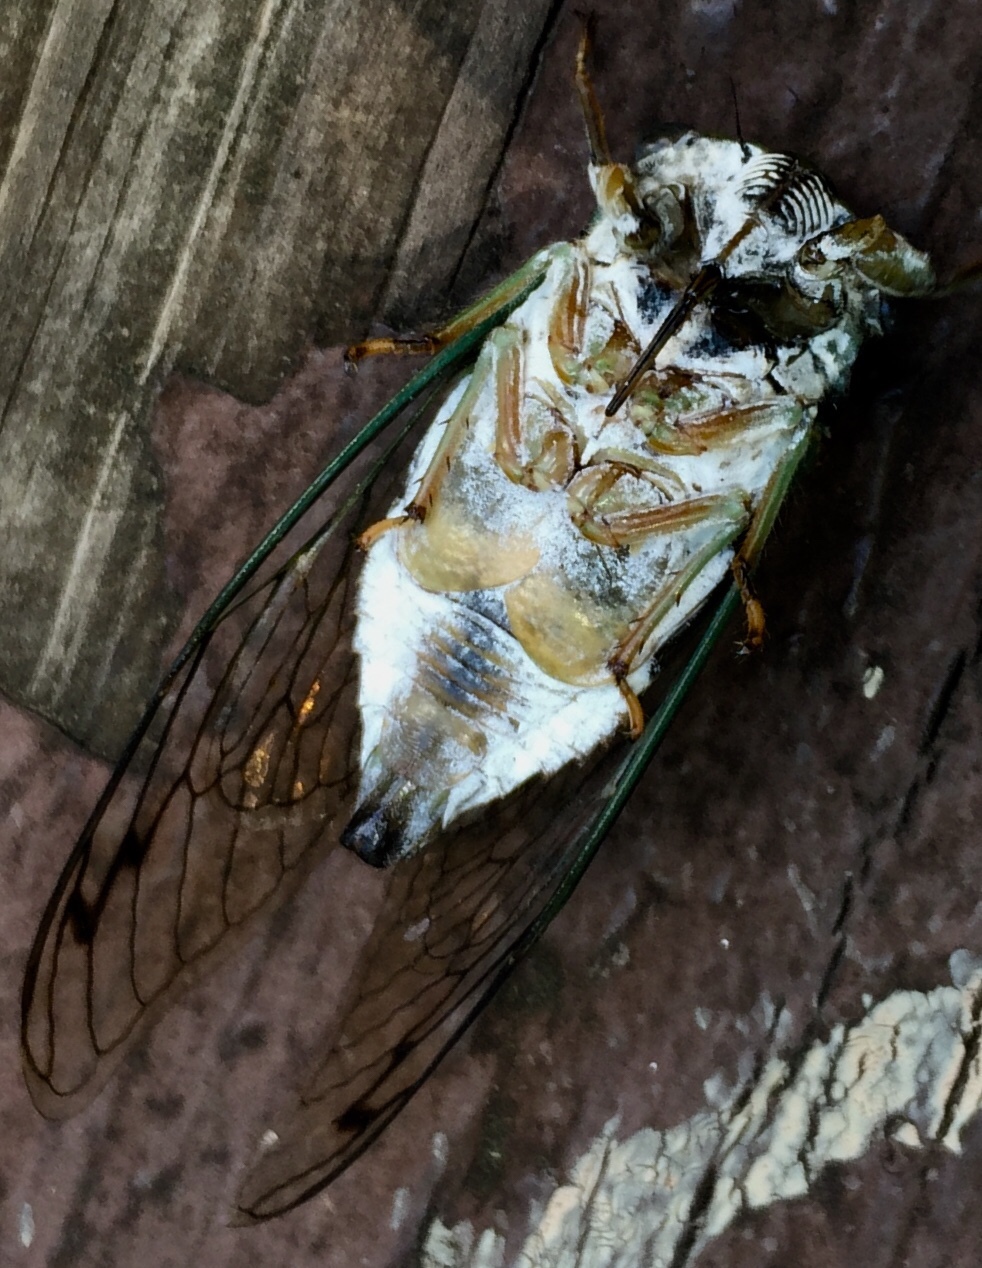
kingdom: Animalia
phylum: Arthropoda
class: Insecta
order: Hemiptera
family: Cicadidae
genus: Neotibicen
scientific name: Neotibicen winnemanna
